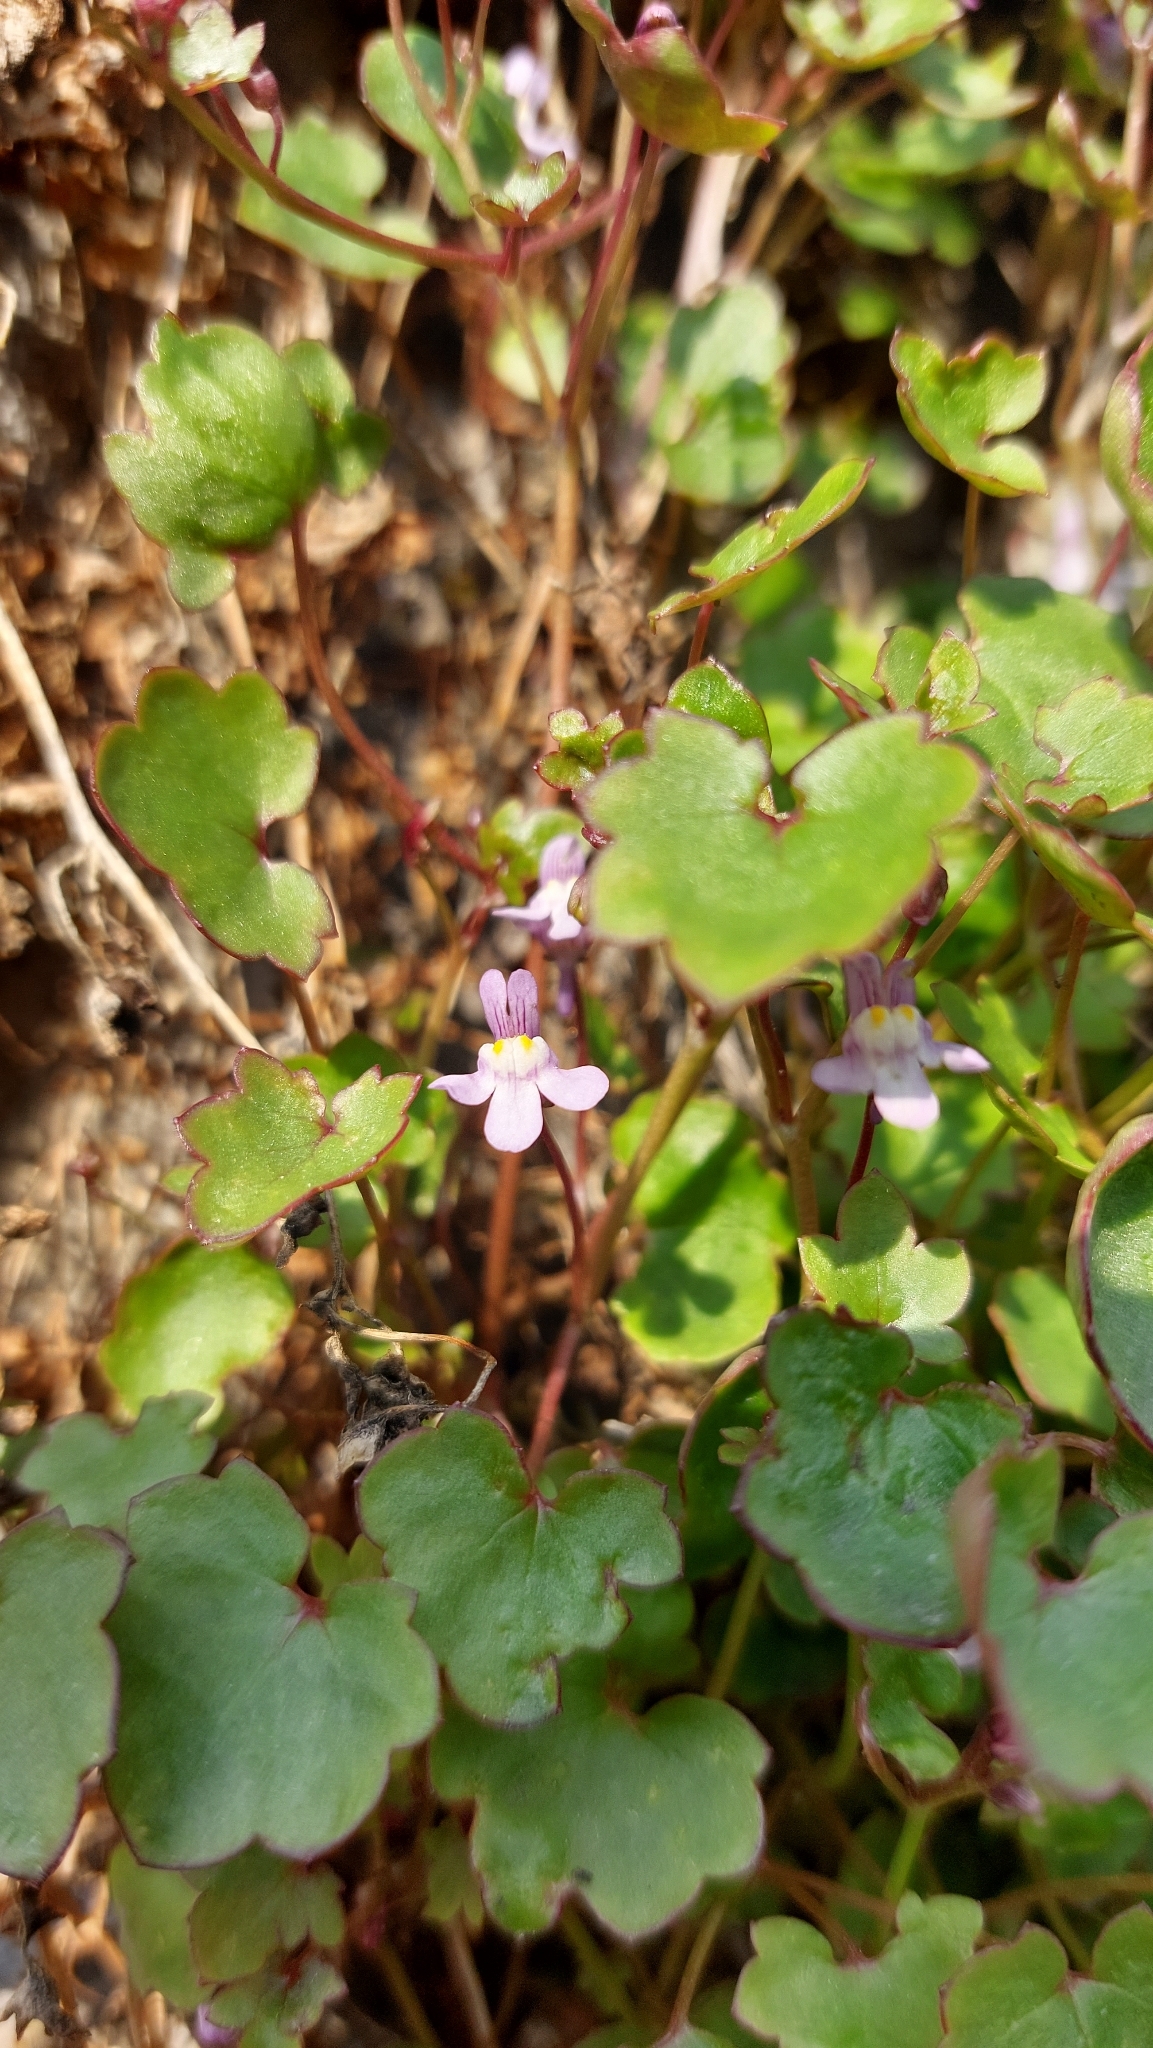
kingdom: Plantae
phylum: Tracheophyta
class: Magnoliopsida
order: Lamiales
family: Plantaginaceae
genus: Cymbalaria
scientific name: Cymbalaria muralis
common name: Ivy-leaved toadflax
